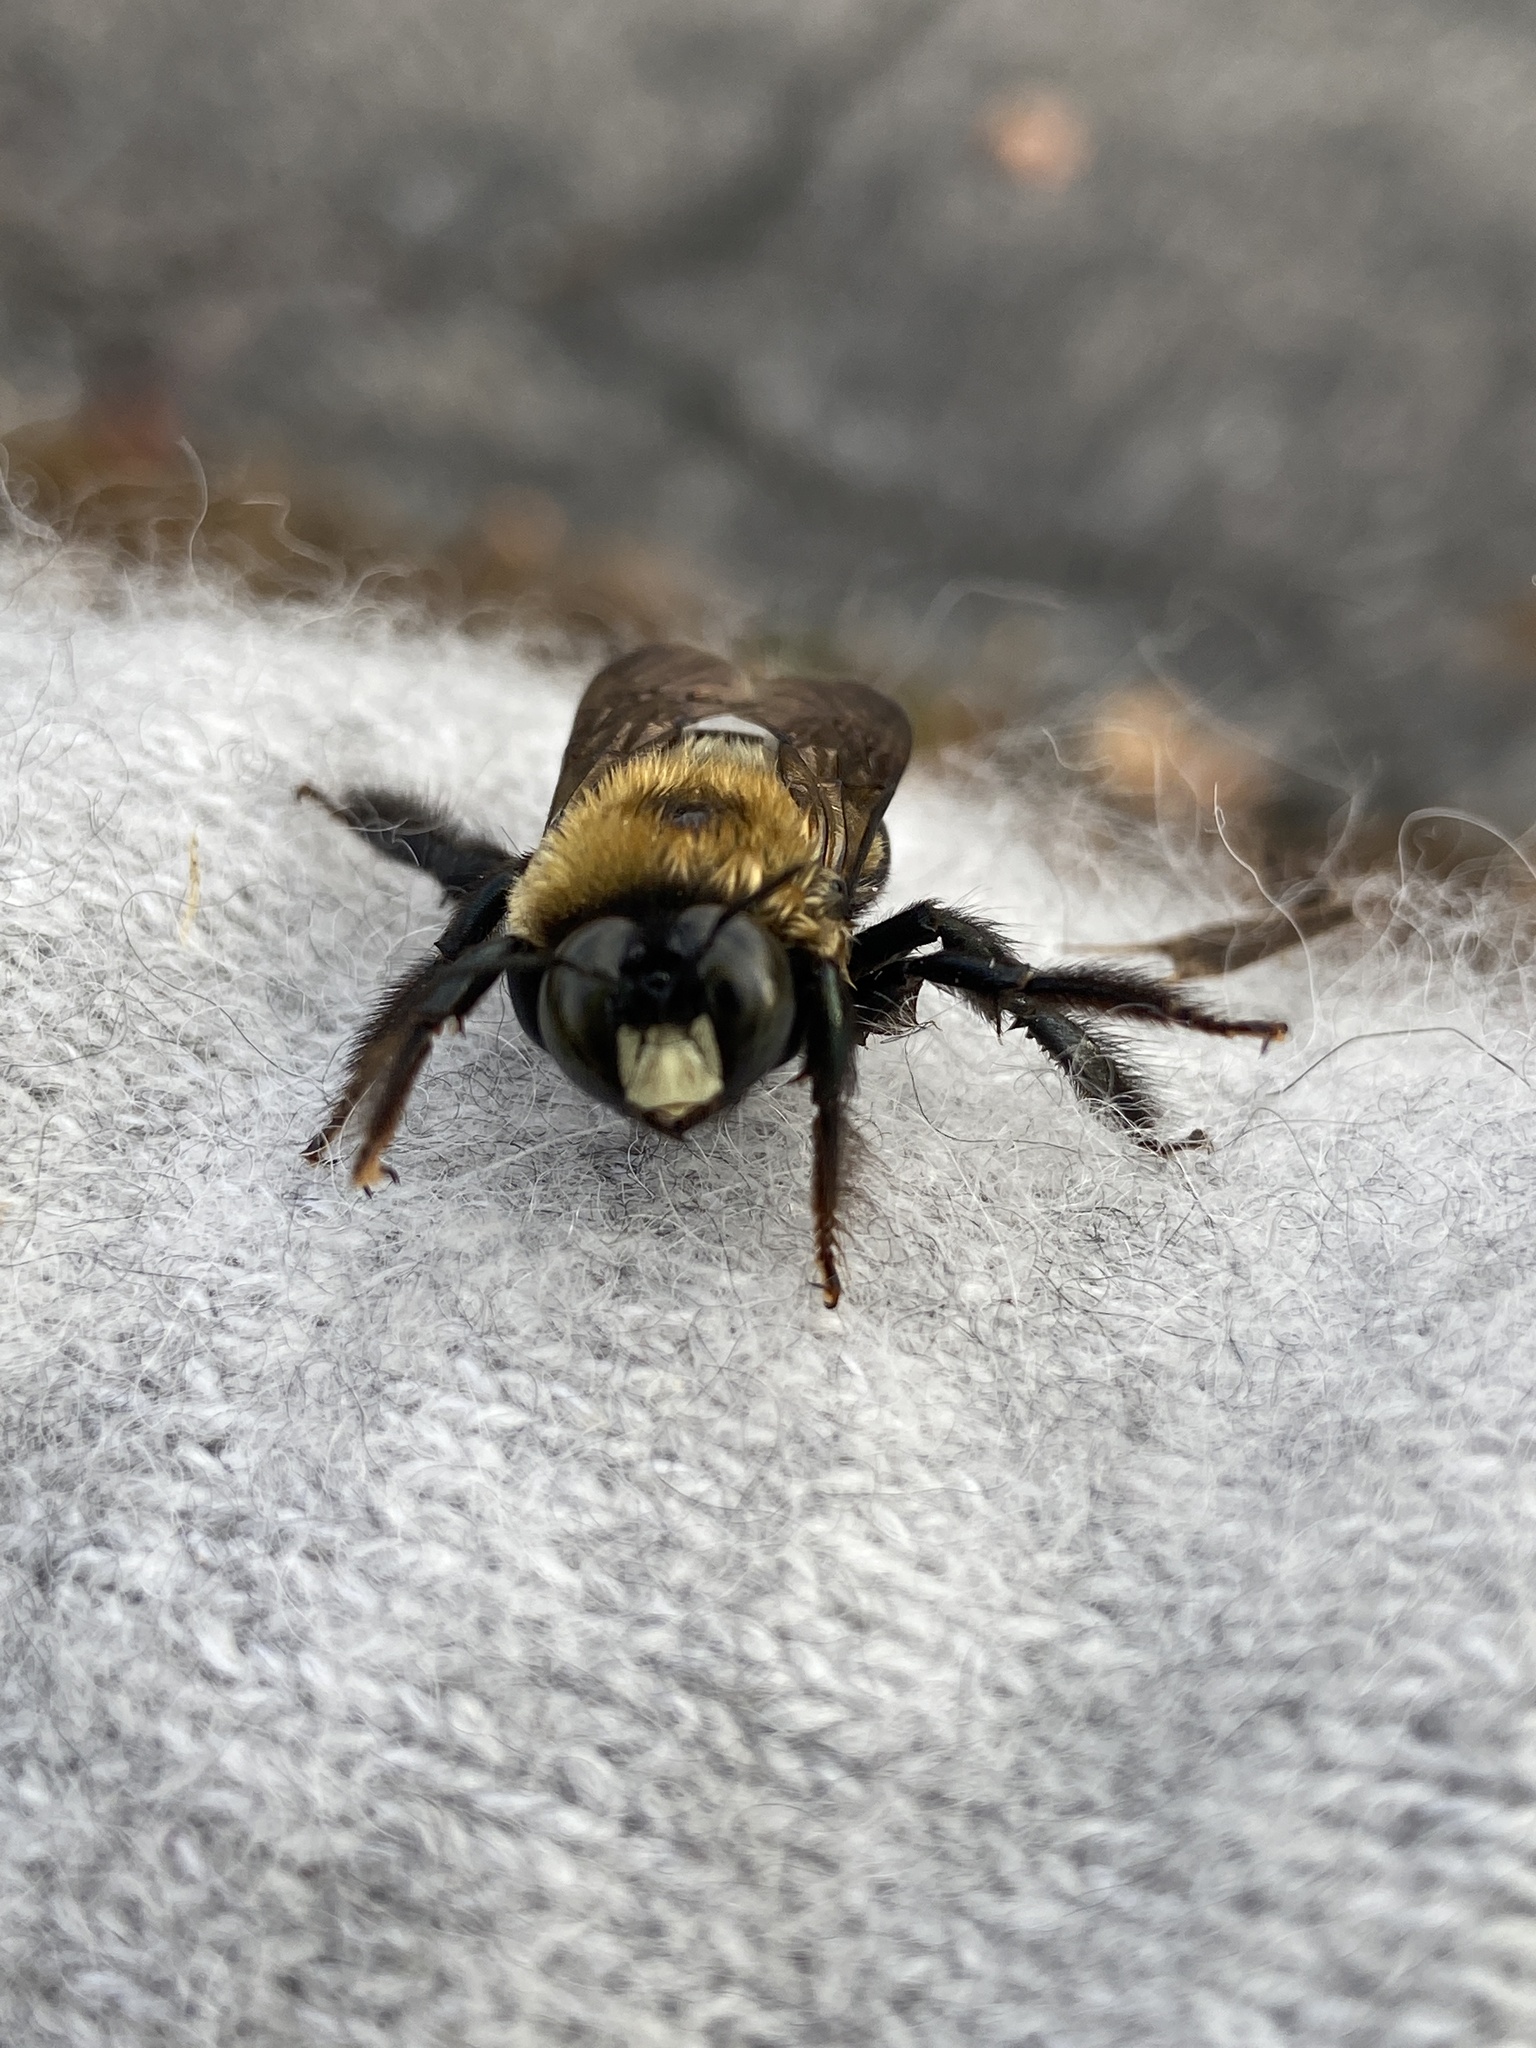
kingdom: Animalia
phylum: Arthropoda
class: Insecta
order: Hymenoptera
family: Apidae
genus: Xylocopa
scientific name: Xylocopa virginica
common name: Carpenter bee
